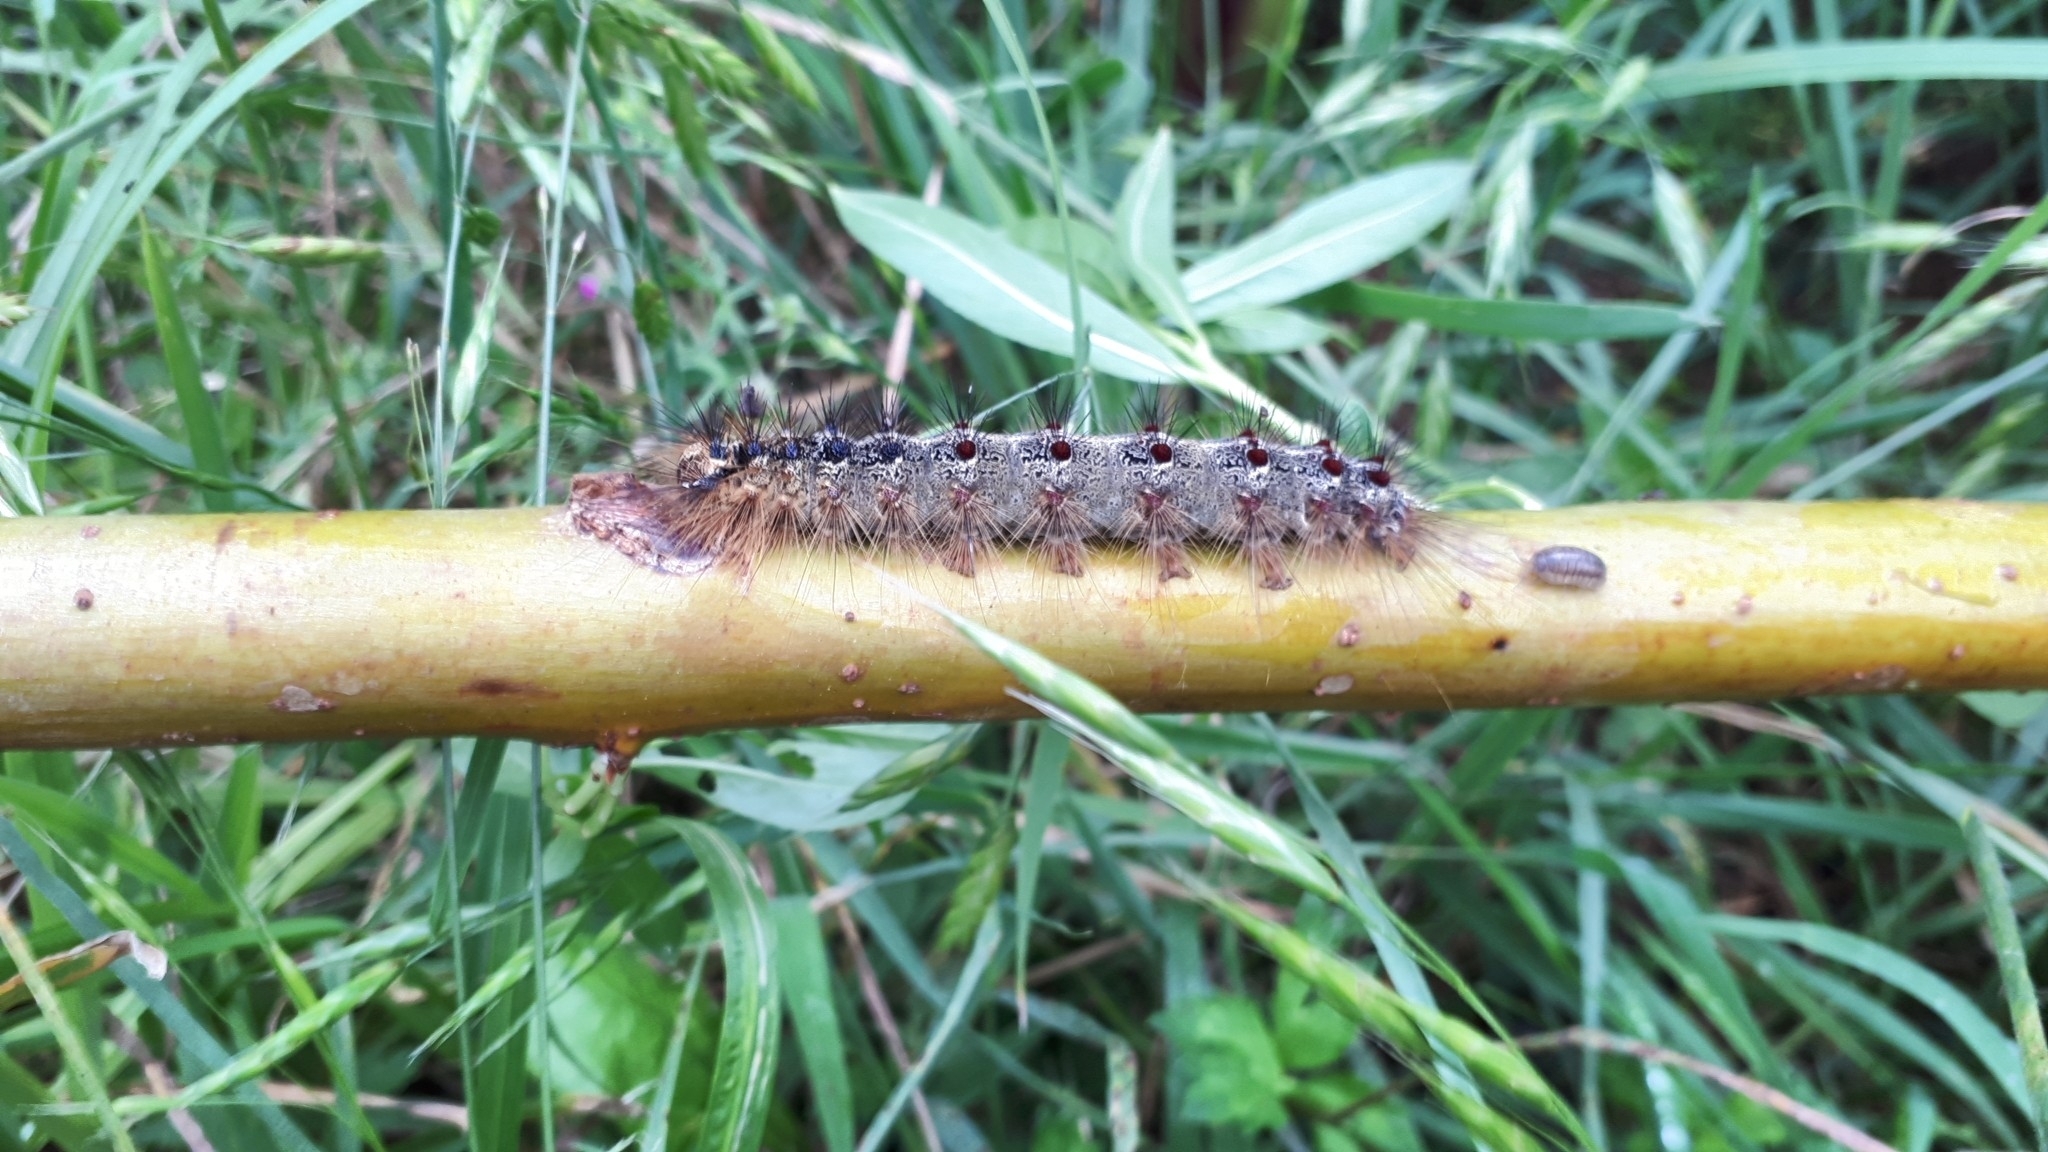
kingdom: Animalia
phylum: Arthropoda
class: Insecta
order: Lepidoptera
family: Erebidae
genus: Lymantria
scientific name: Lymantria dispar
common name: Gypsy moth
